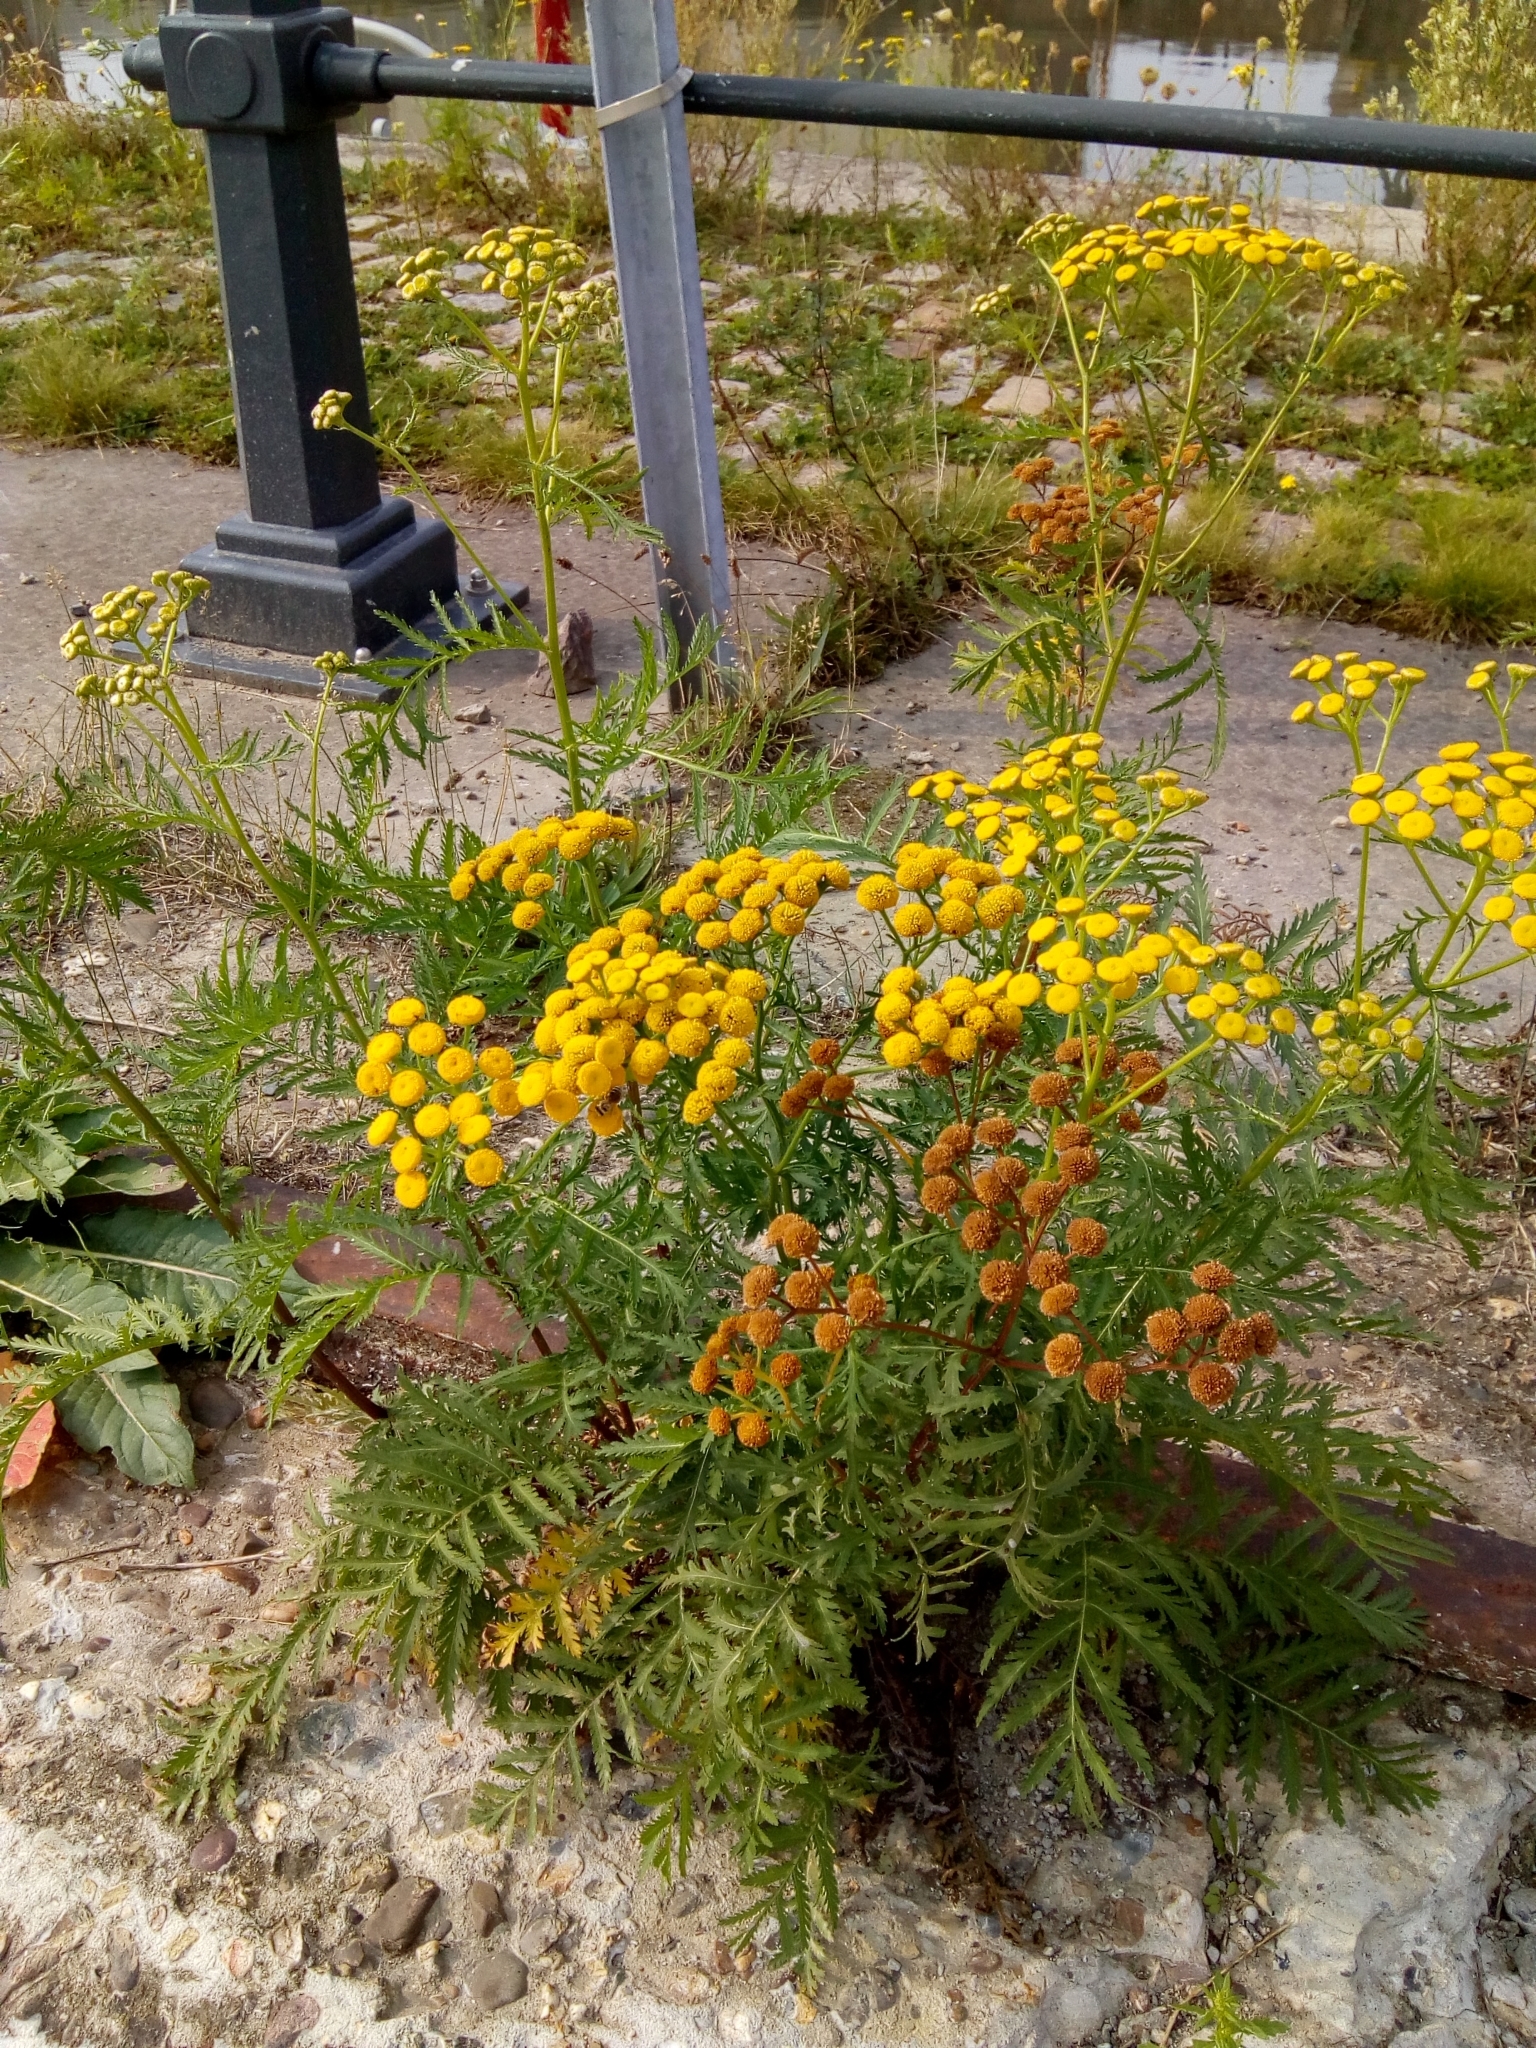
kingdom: Plantae
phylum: Tracheophyta
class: Magnoliopsida
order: Asterales
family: Asteraceae
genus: Tanacetum
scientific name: Tanacetum vulgare
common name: Common tansy
